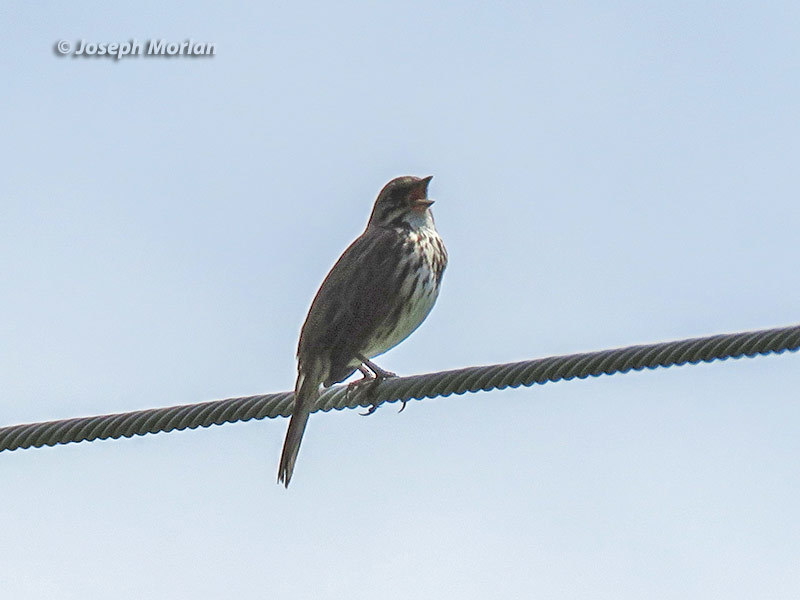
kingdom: Animalia
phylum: Chordata
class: Aves
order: Passeriformes
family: Passerellidae
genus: Melospiza
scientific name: Melospiza melodia
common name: Song sparrow
